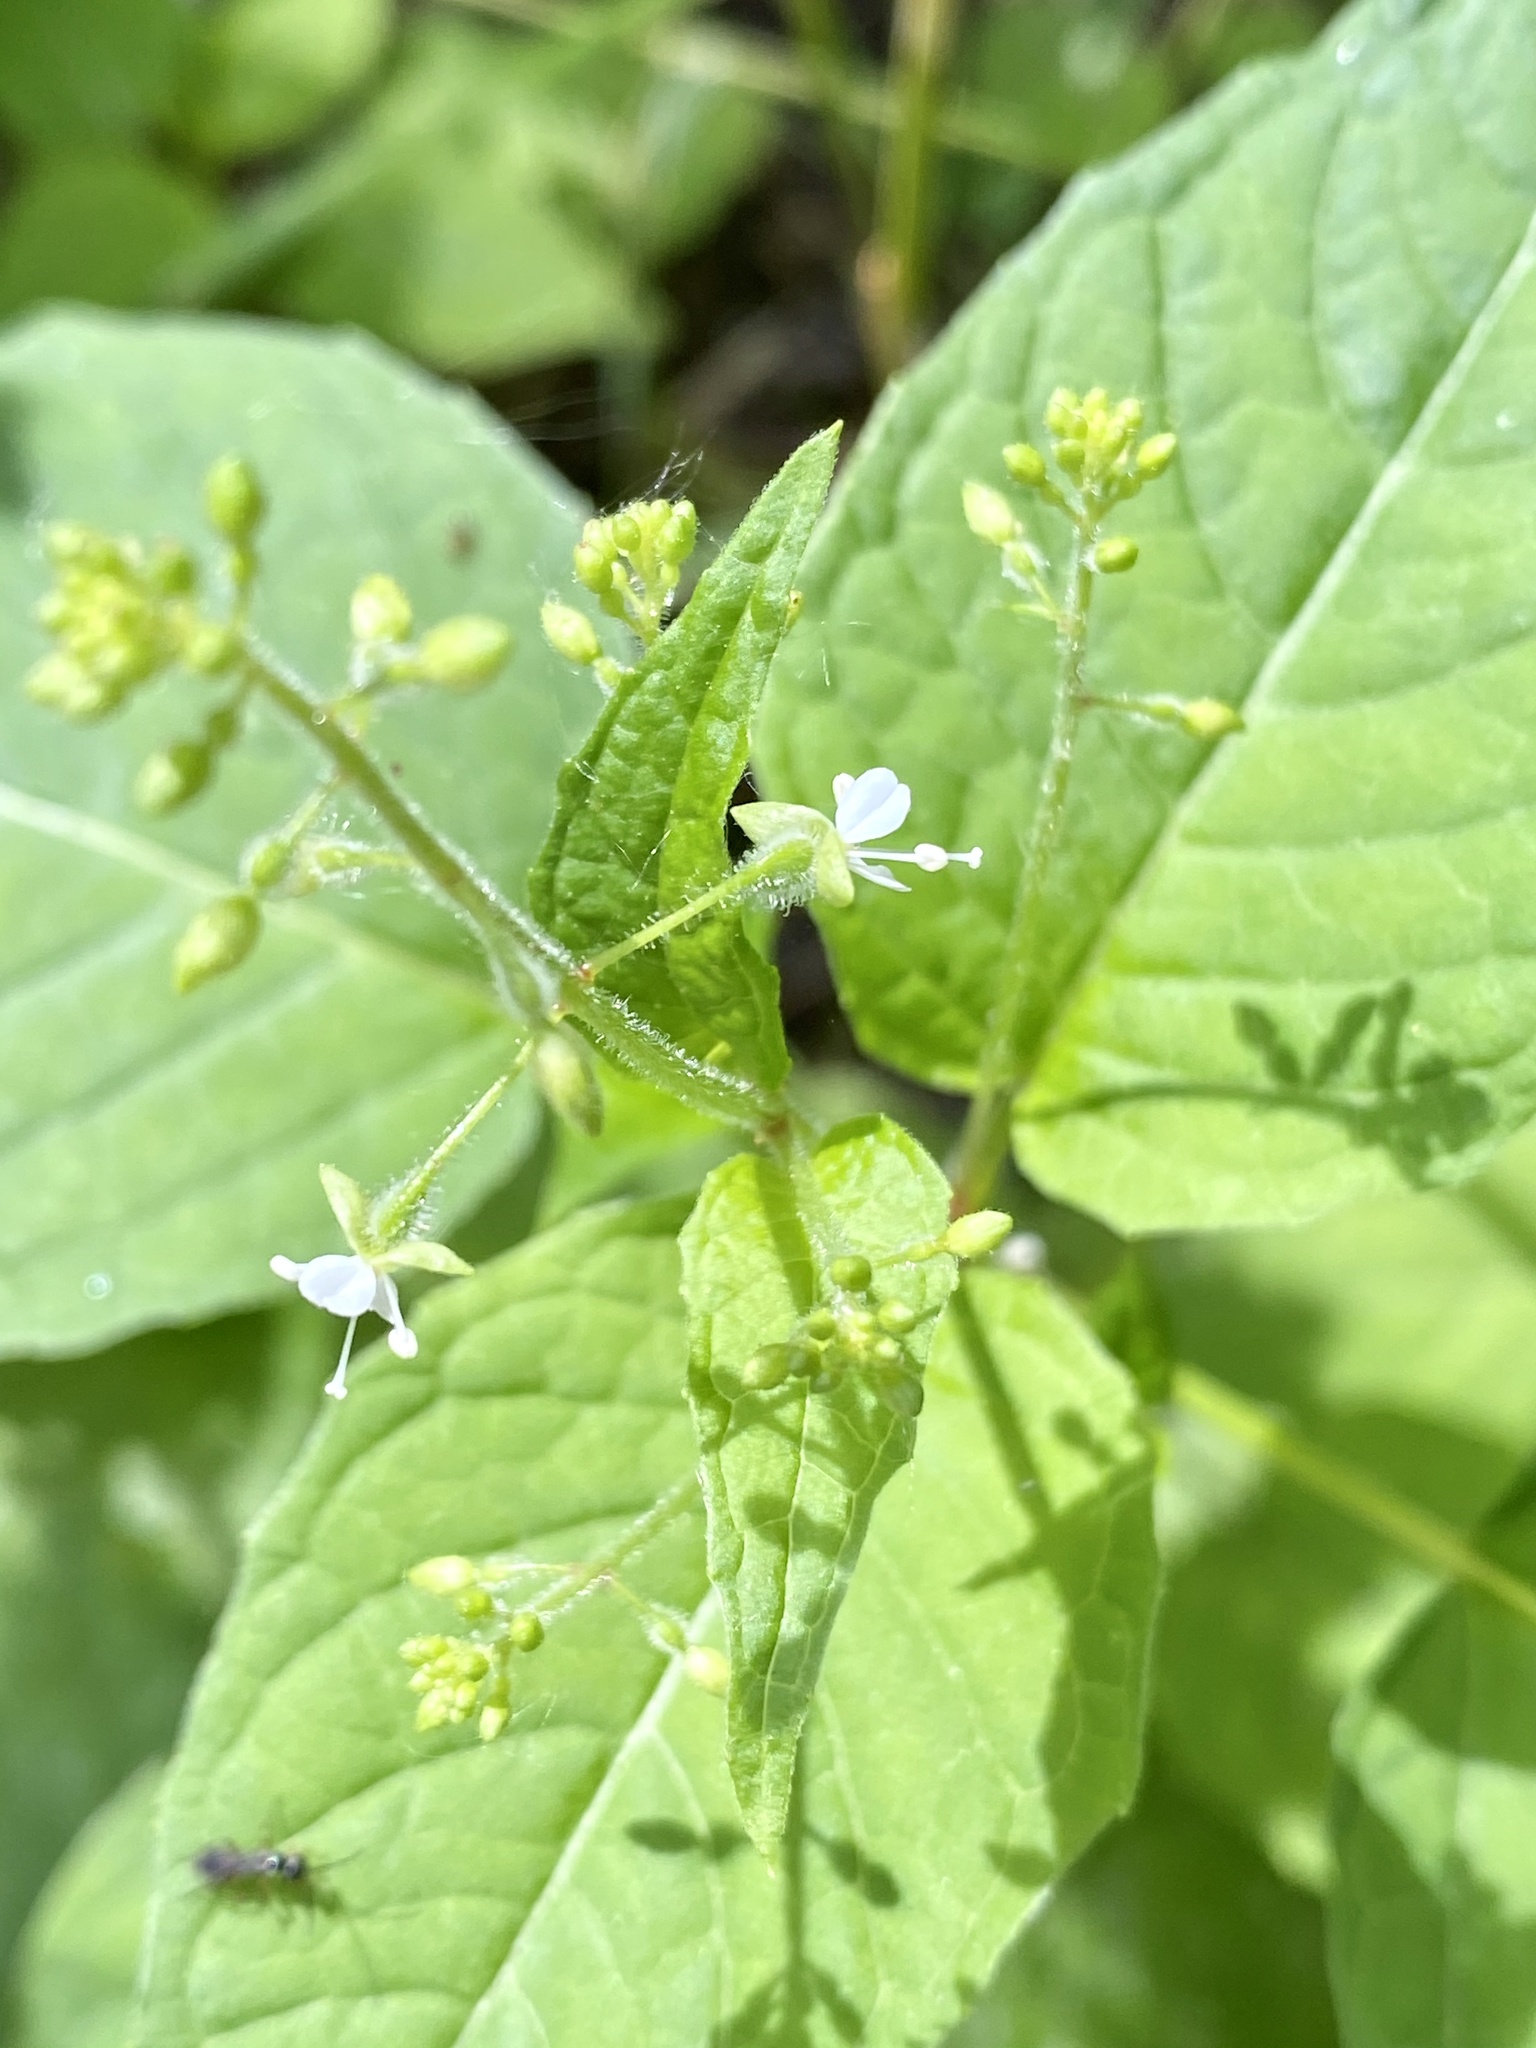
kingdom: Plantae
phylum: Tracheophyta
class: Magnoliopsida
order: Myrtales
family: Onagraceae
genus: Circaea
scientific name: Circaea canadensis
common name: Broad-leaved enchanter's nightshade
